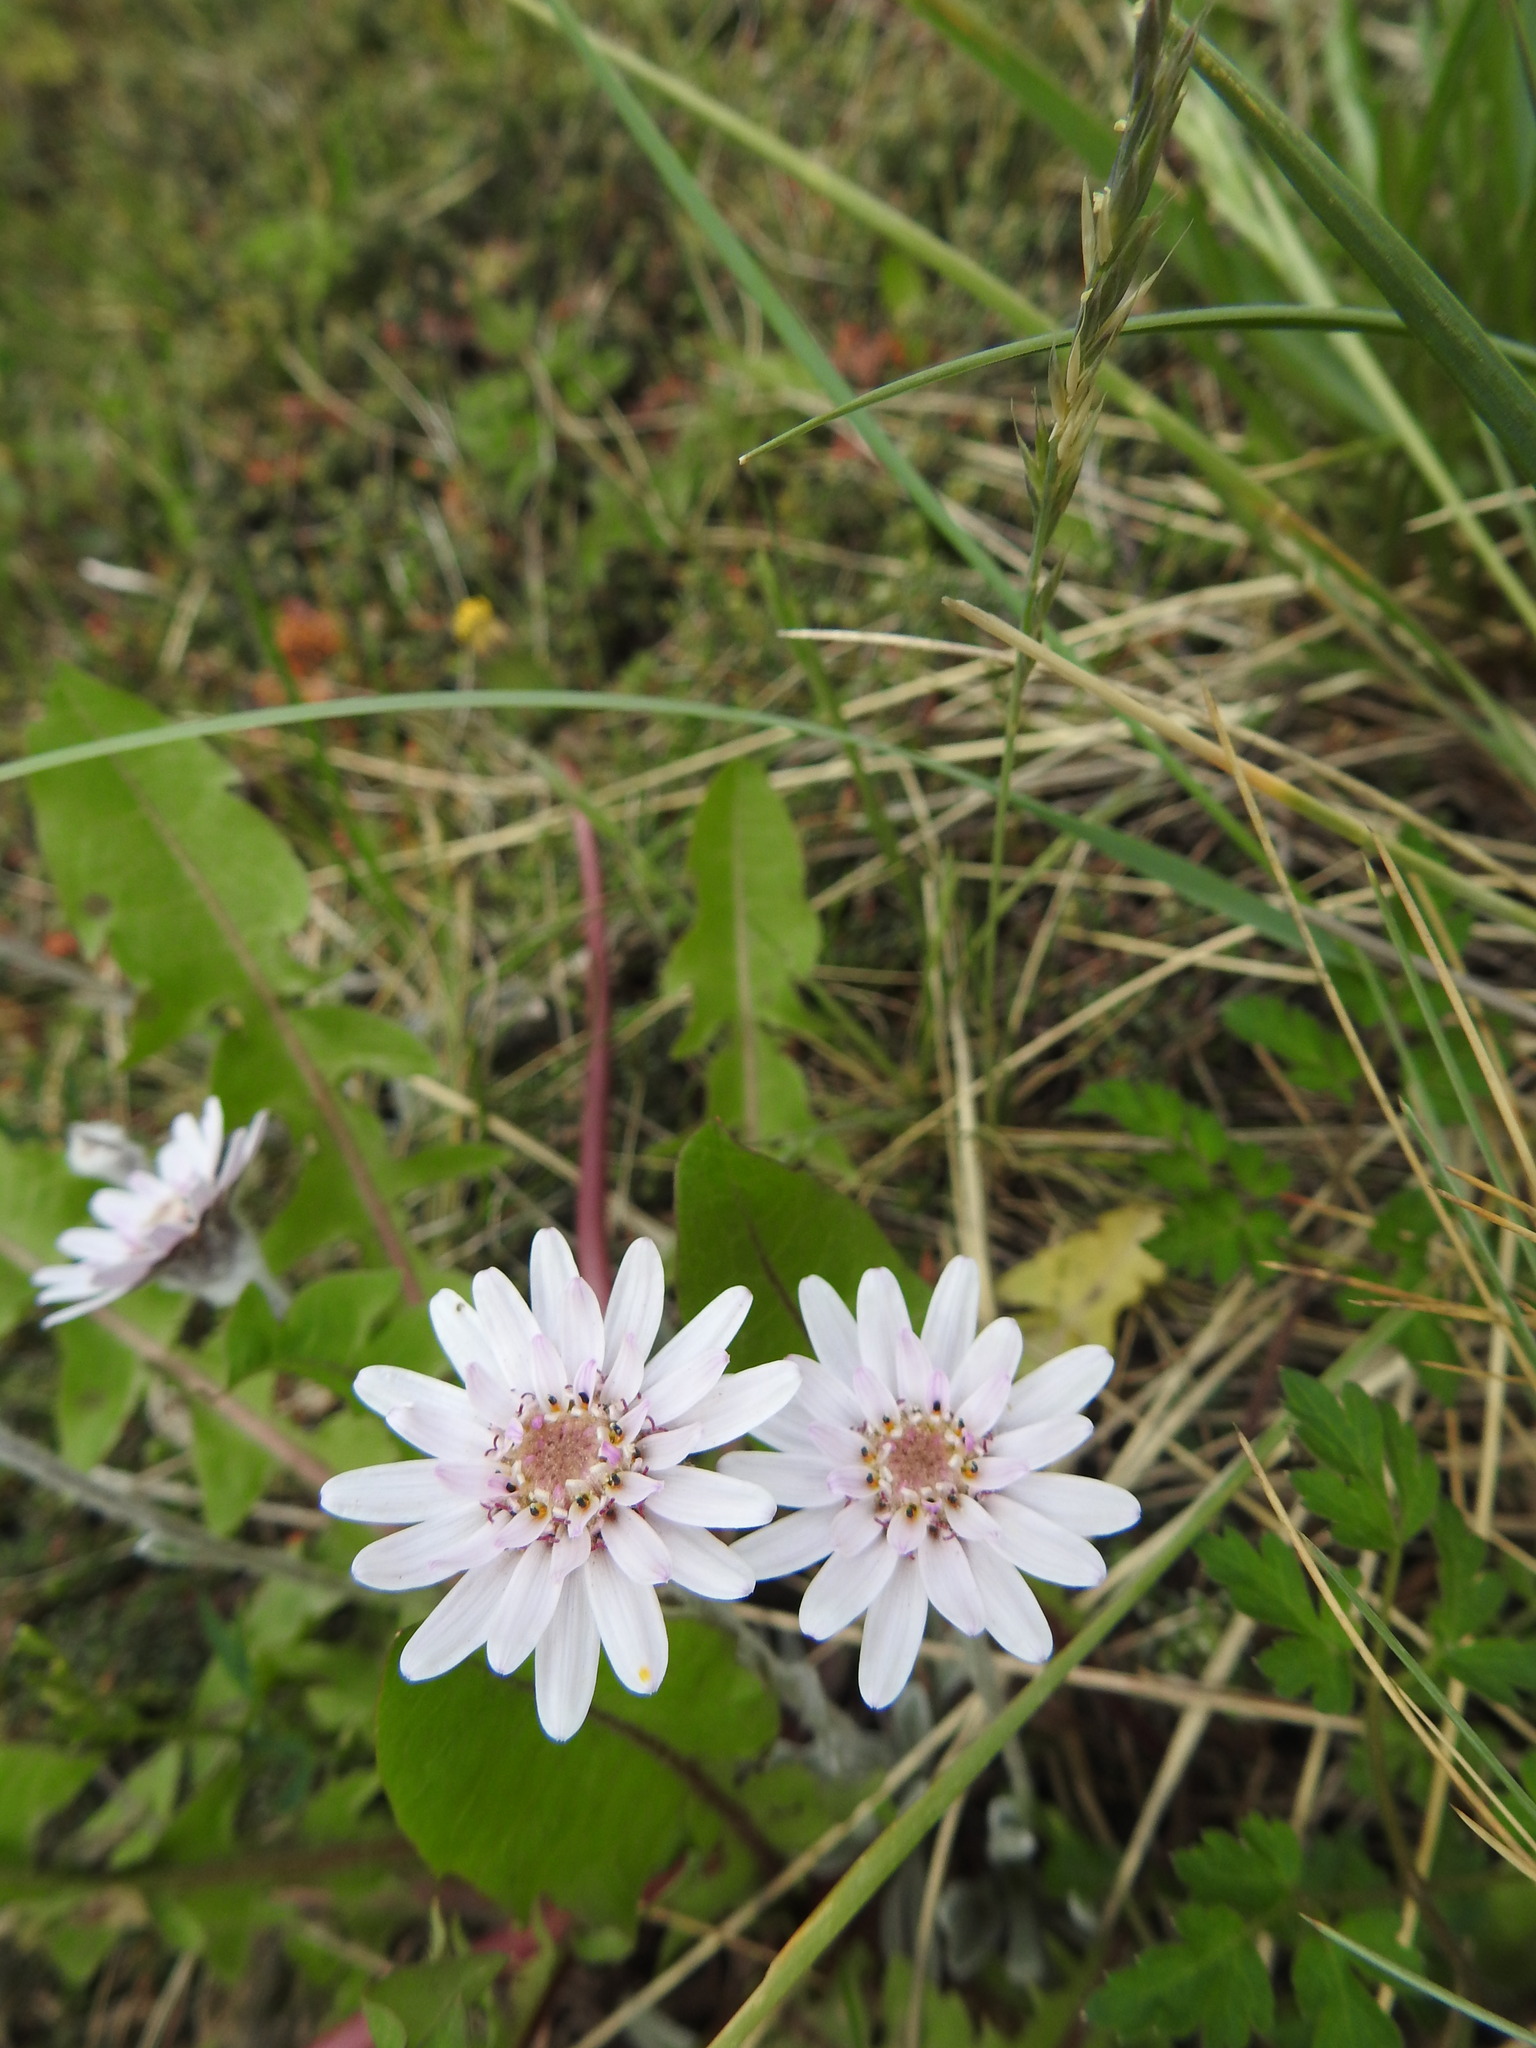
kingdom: Plantae
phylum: Tracheophyta
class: Magnoliopsida
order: Asterales
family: Asteraceae
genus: Leucheria
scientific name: Leucheria hahnii
